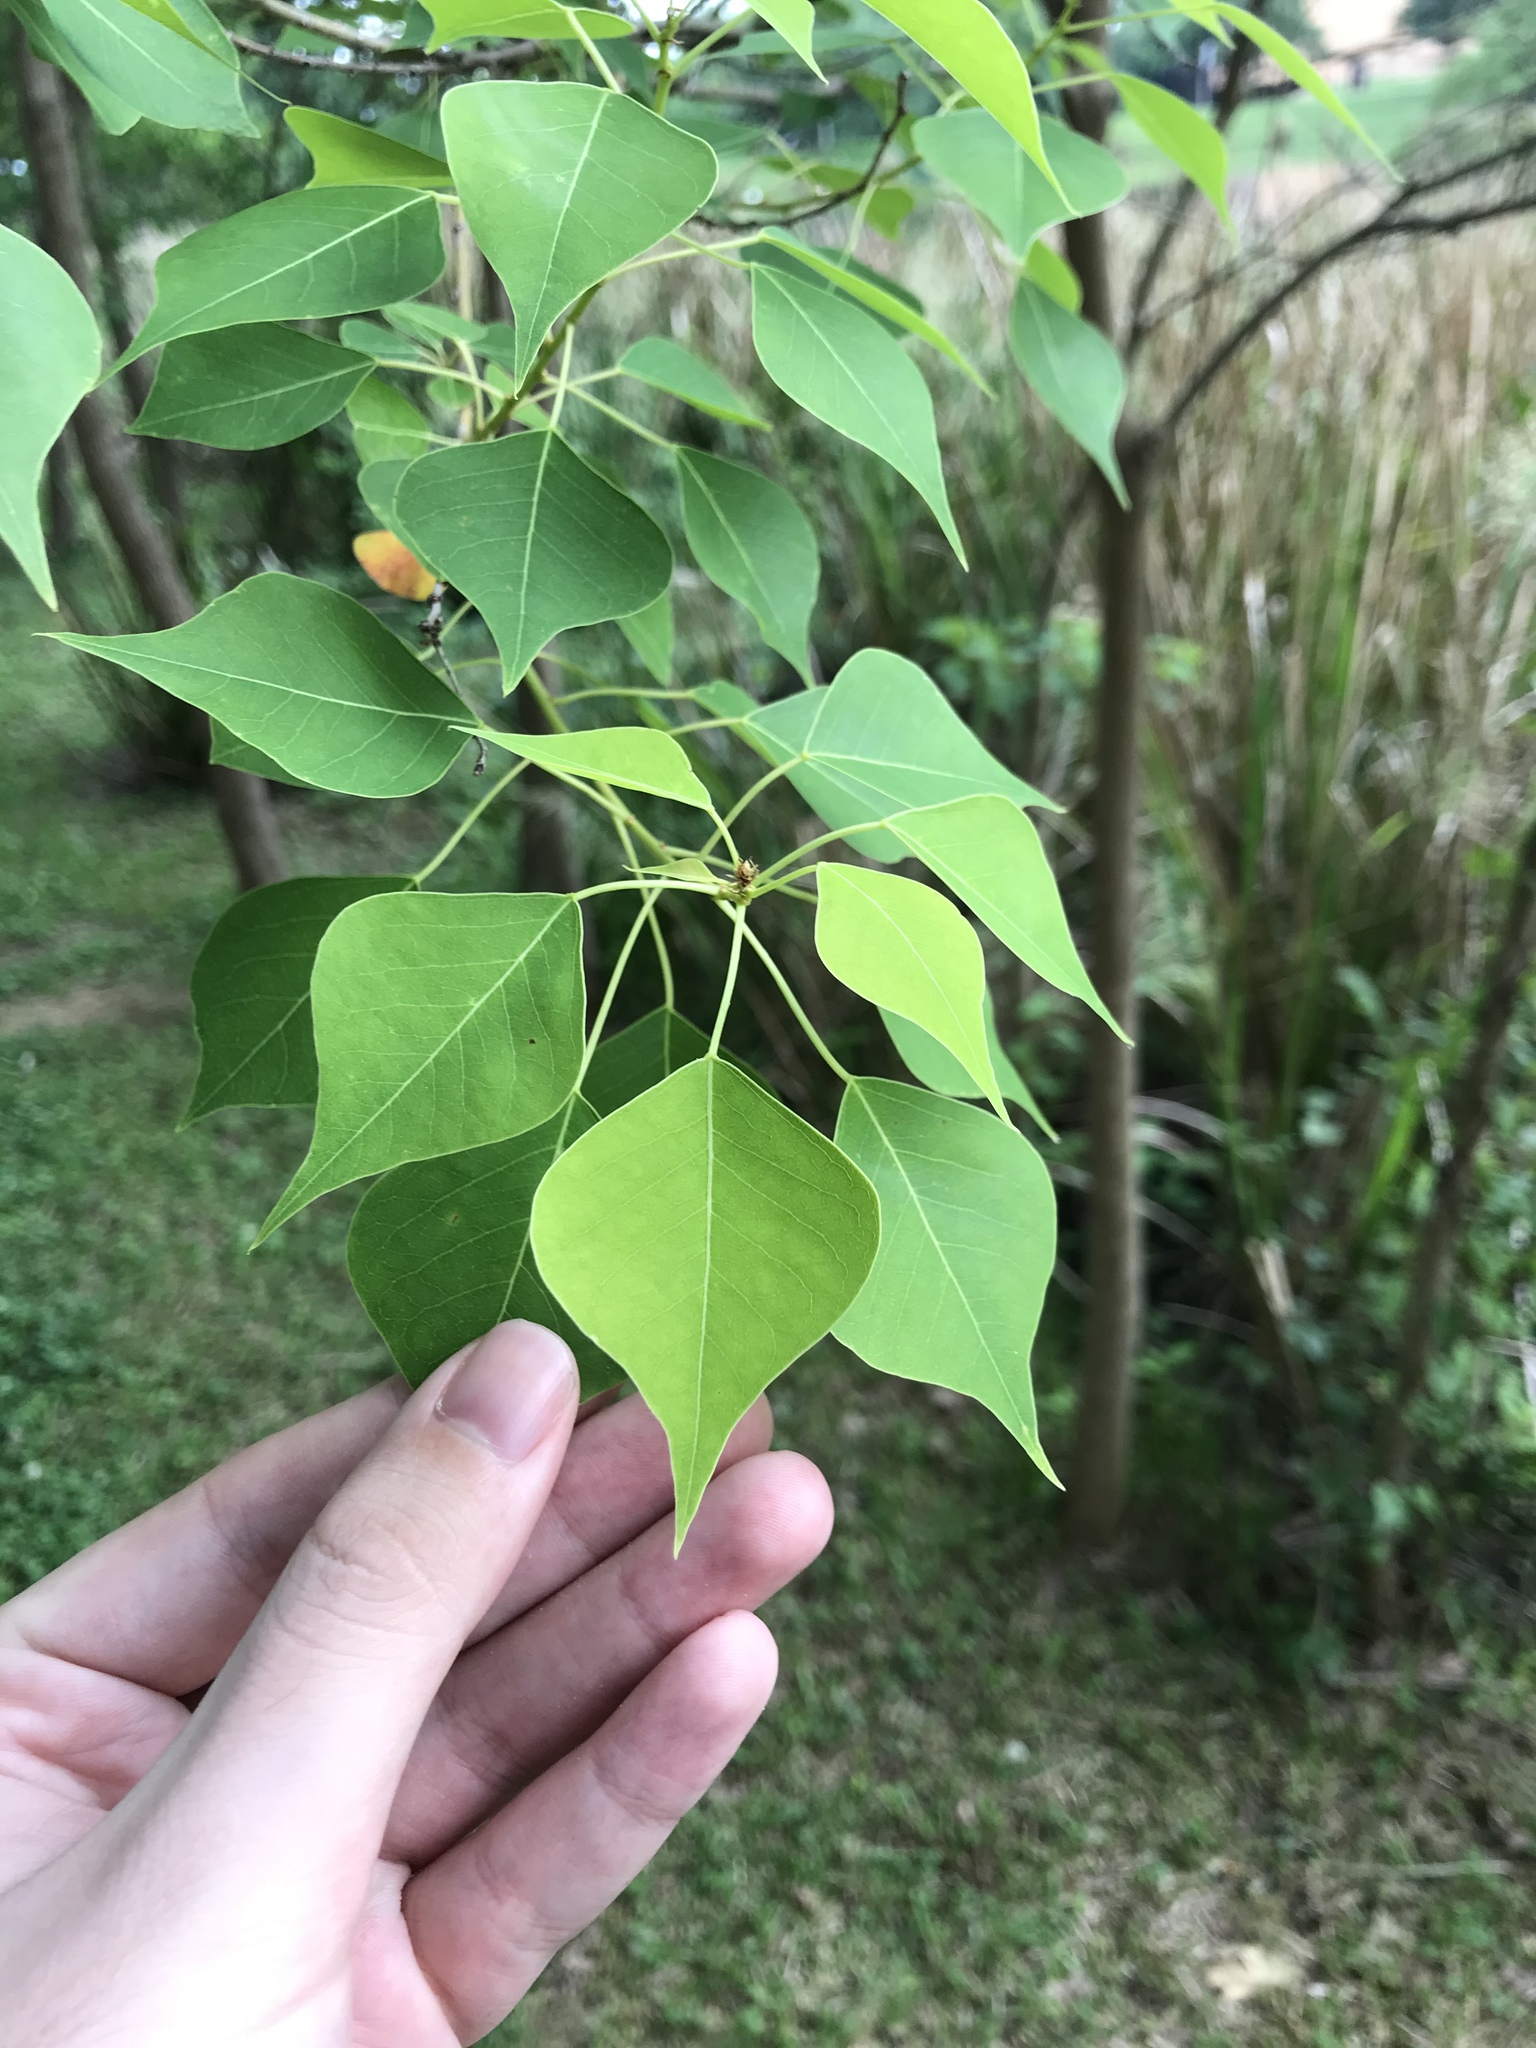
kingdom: Plantae
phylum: Tracheophyta
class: Magnoliopsida
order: Malpighiales
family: Euphorbiaceae
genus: Triadica
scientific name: Triadica sebifera
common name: Chinese tallow
